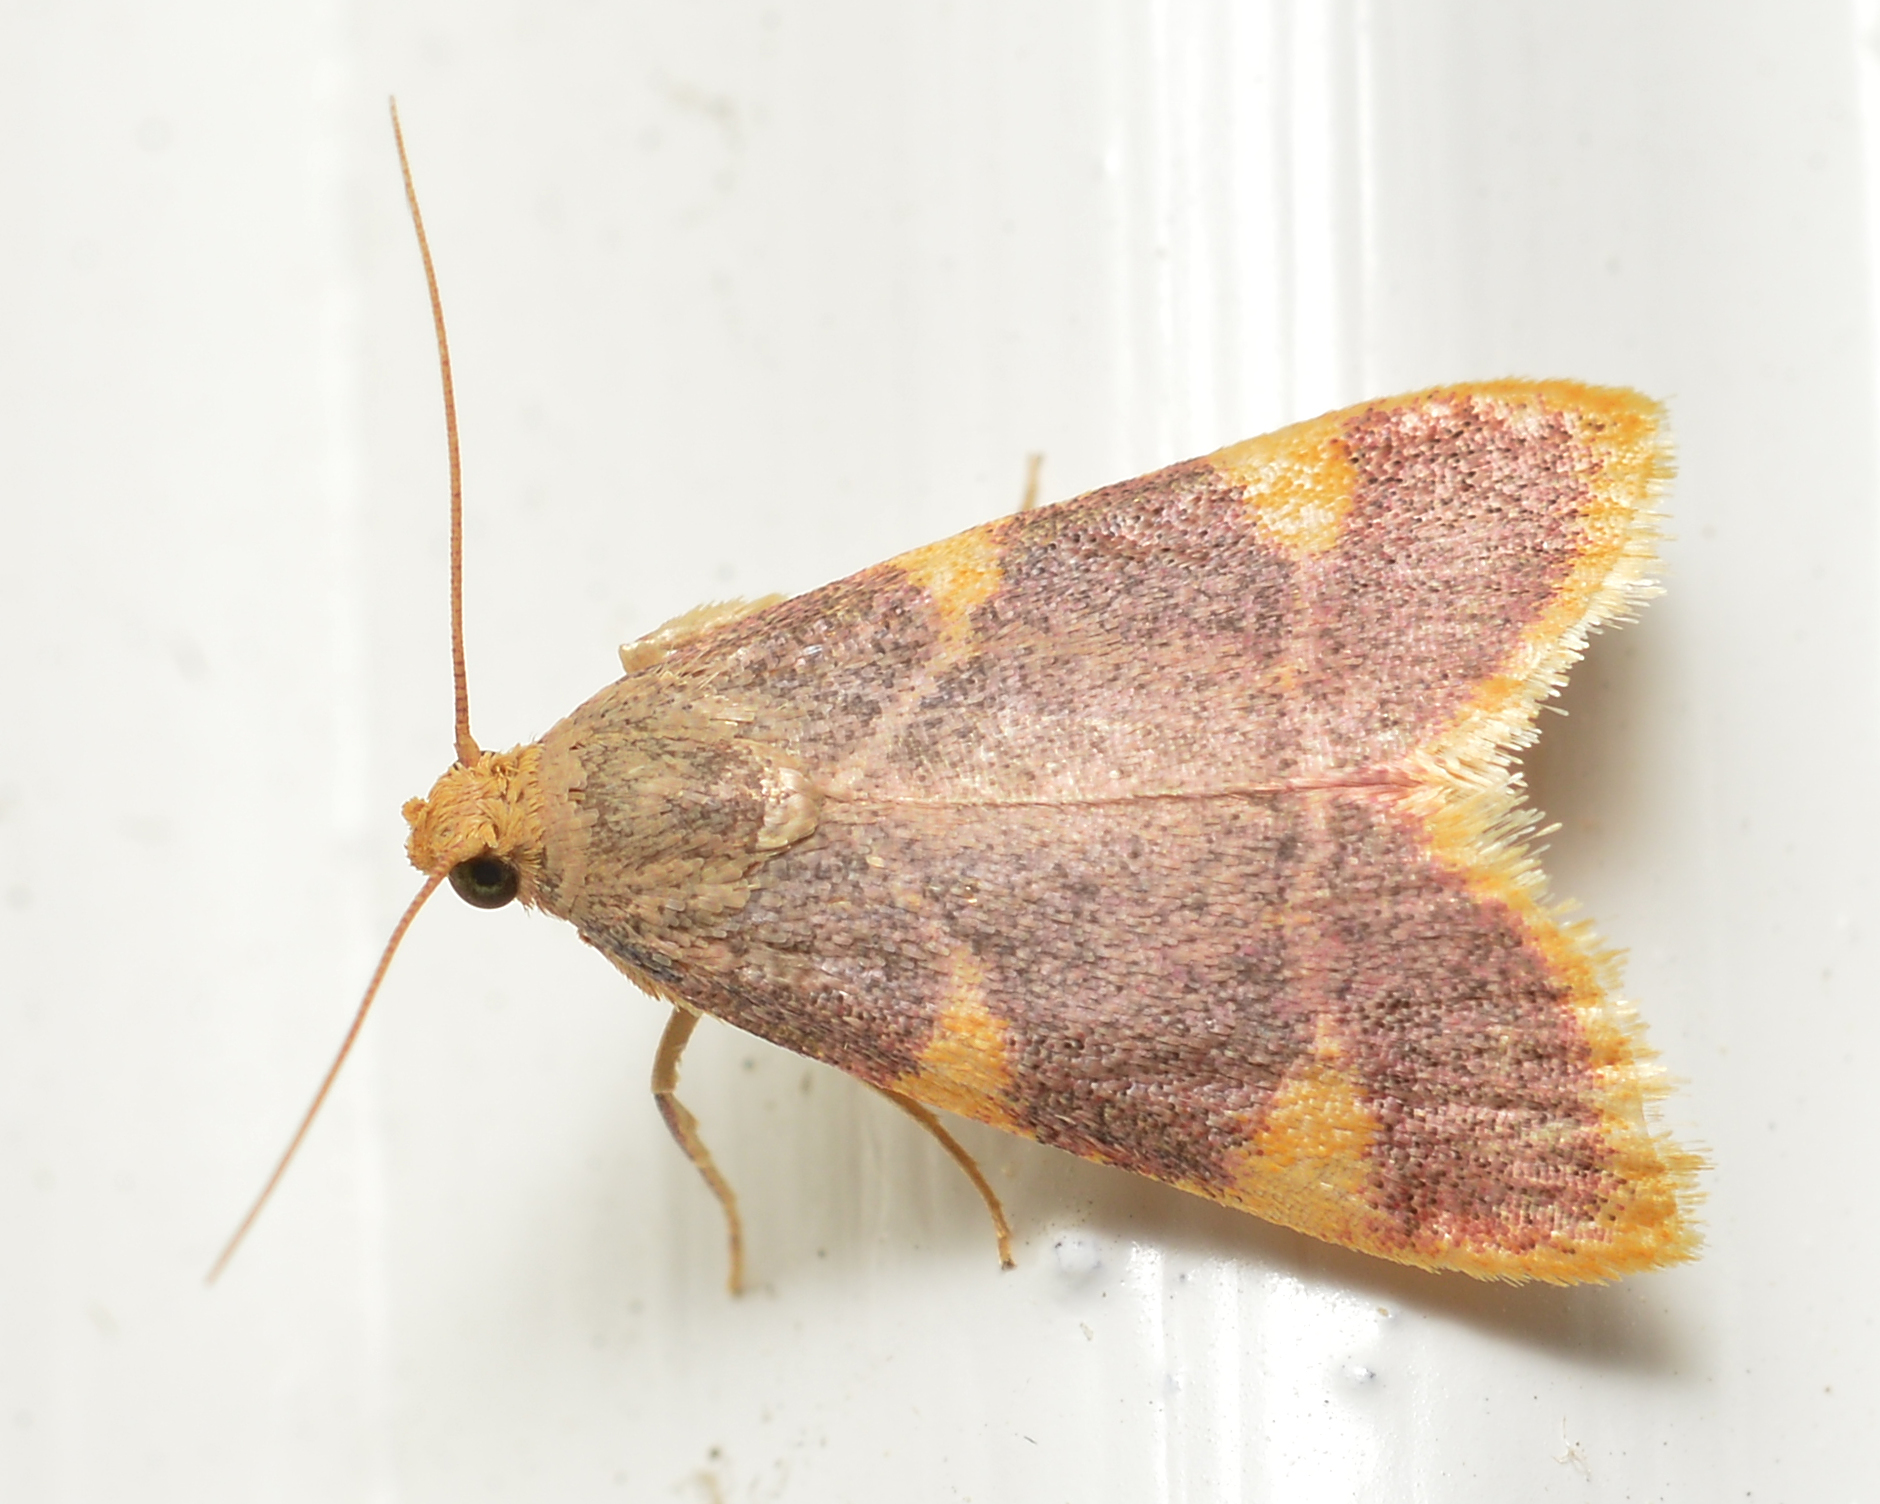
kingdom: Animalia
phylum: Arthropoda
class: Insecta
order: Lepidoptera
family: Pyralidae
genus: Hypsopygia
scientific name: Hypsopygia costalis
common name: Gold triangle
